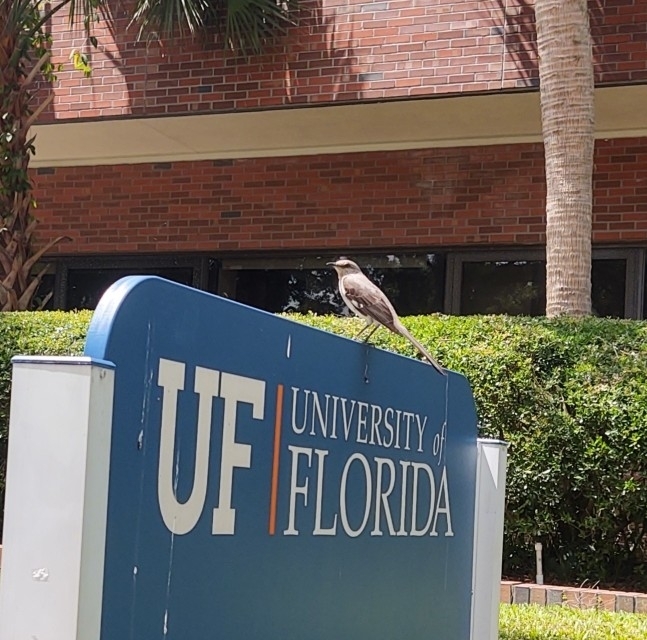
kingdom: Animalia
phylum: Chordata
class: Aves
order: Passeriformes
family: Mimidae
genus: Mimus
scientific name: Mimus polyglottos
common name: Northern mockingbird
